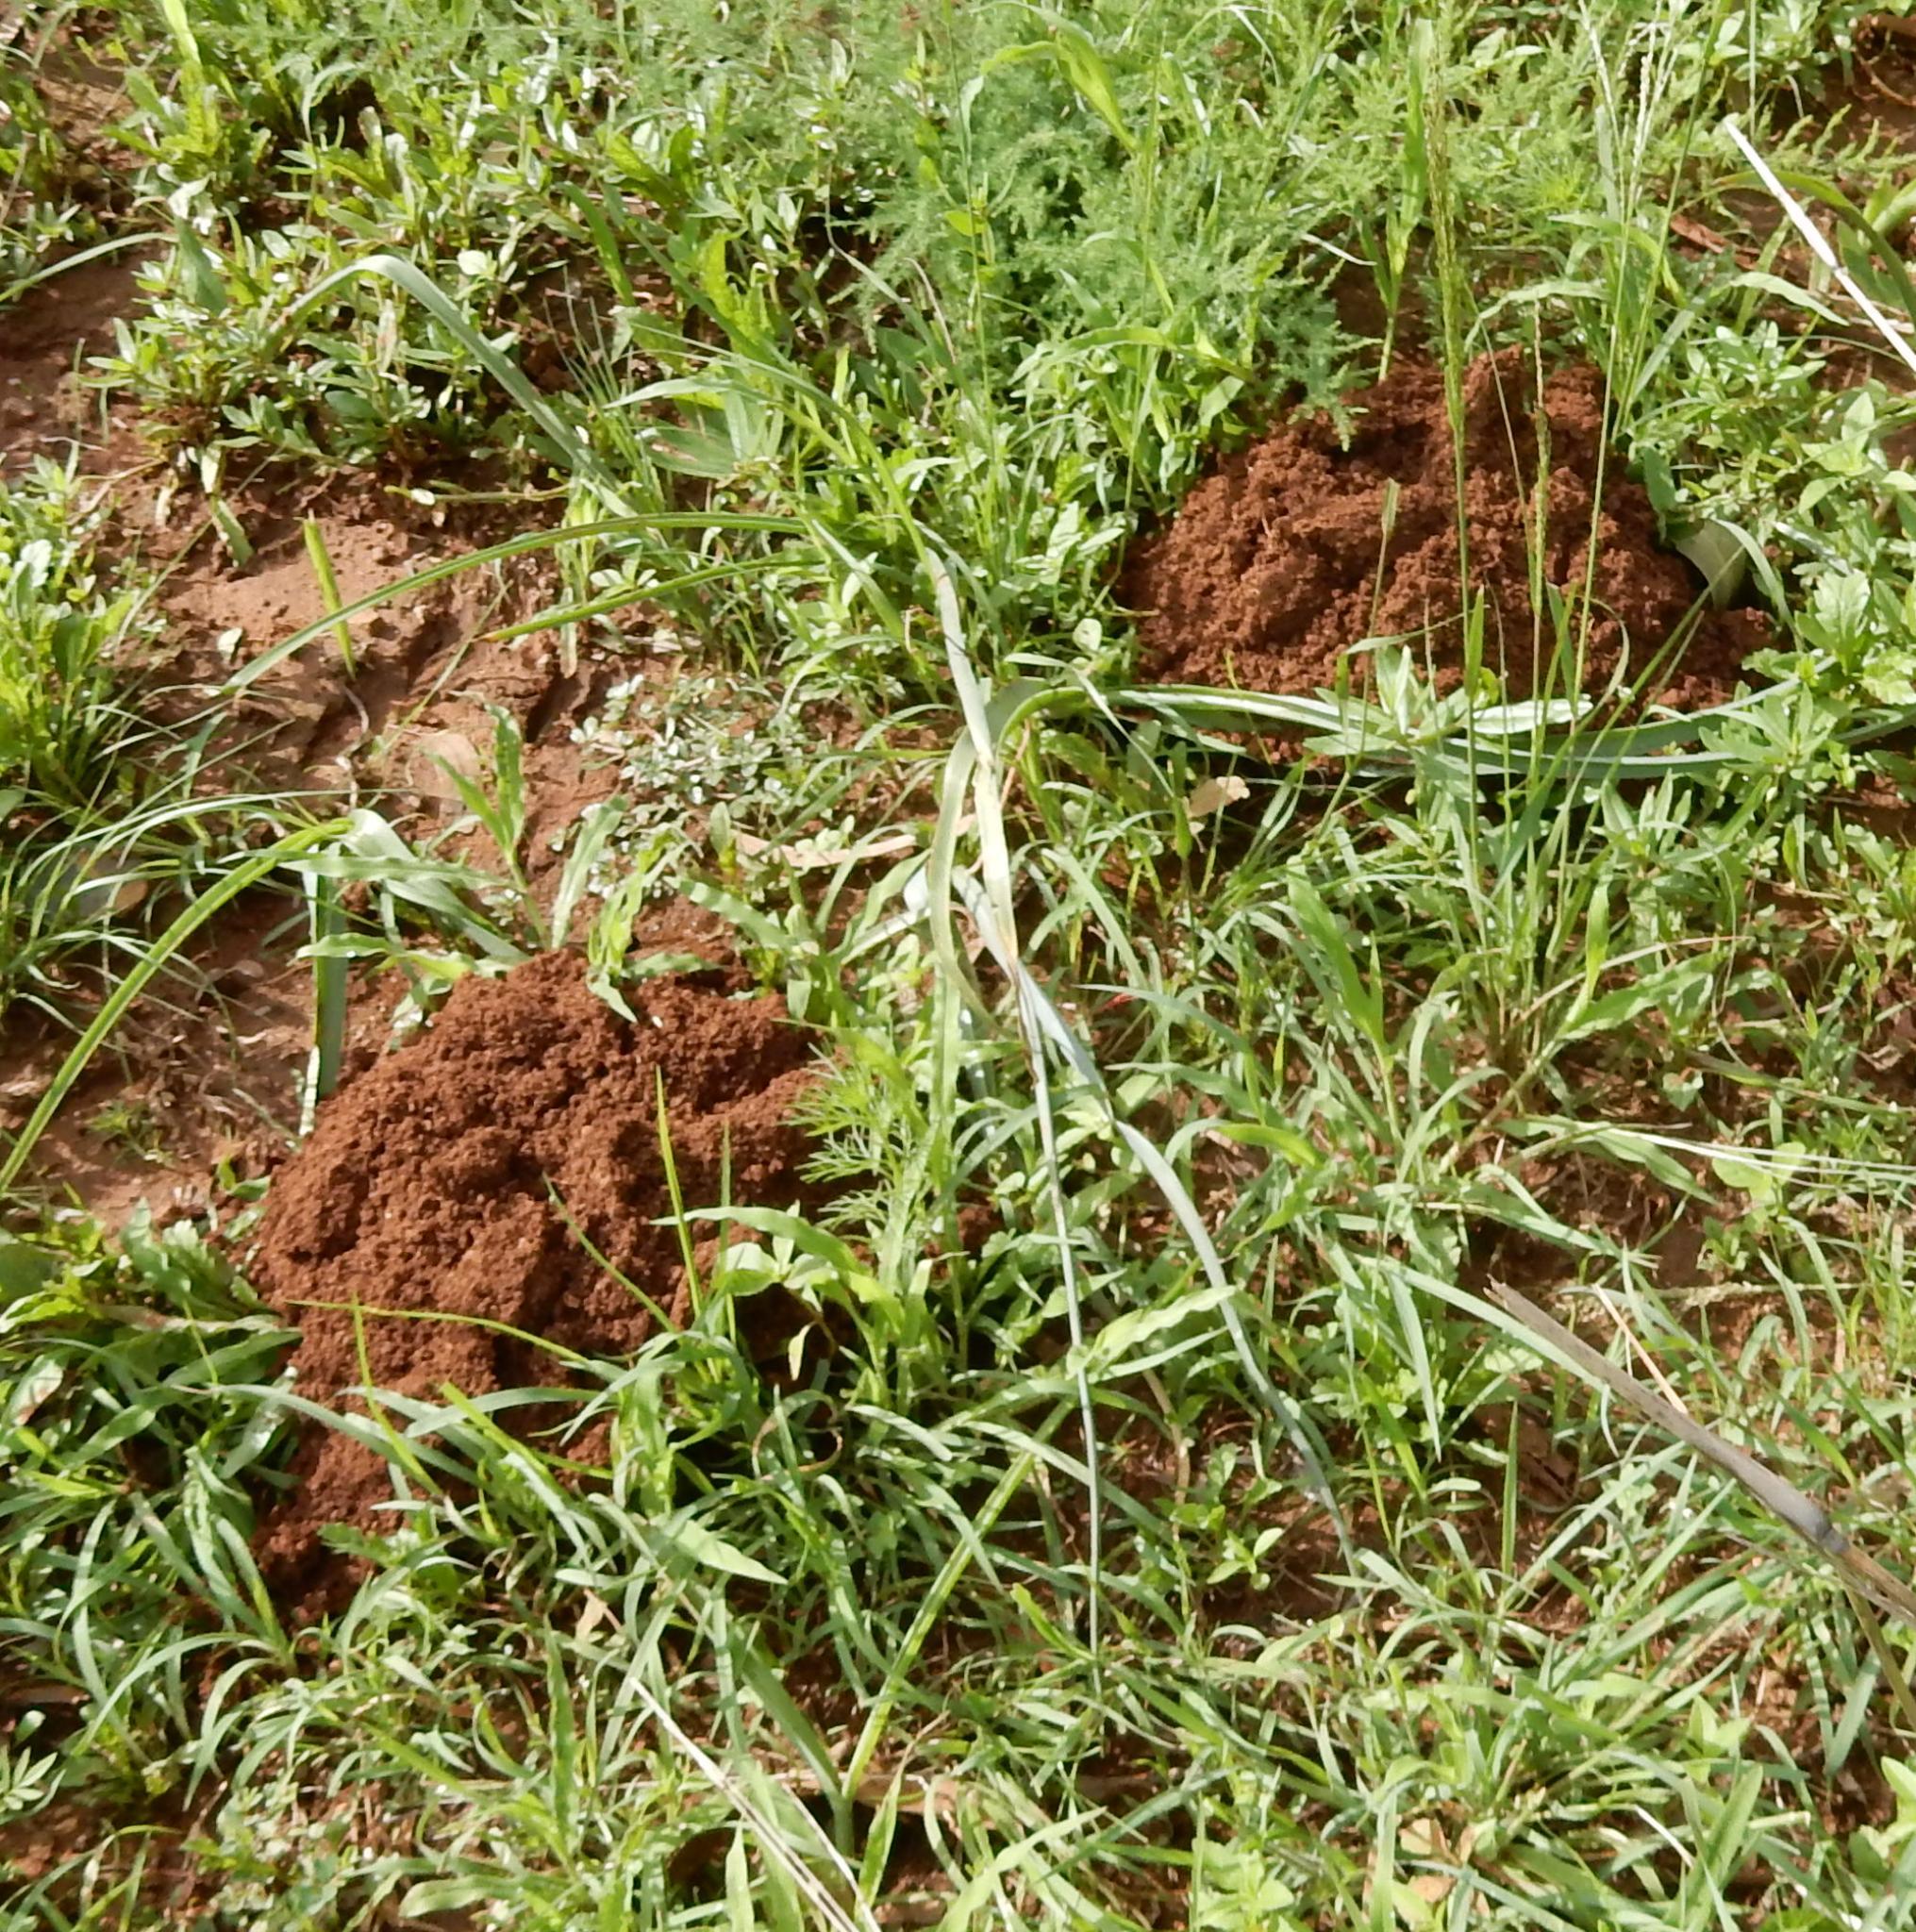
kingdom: Animalia
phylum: Chordata
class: Mammalia
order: Rodentia
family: Bathyergidae
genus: Cryptomys
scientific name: Cryptomys hottentotus
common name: Southern african mole-rat
